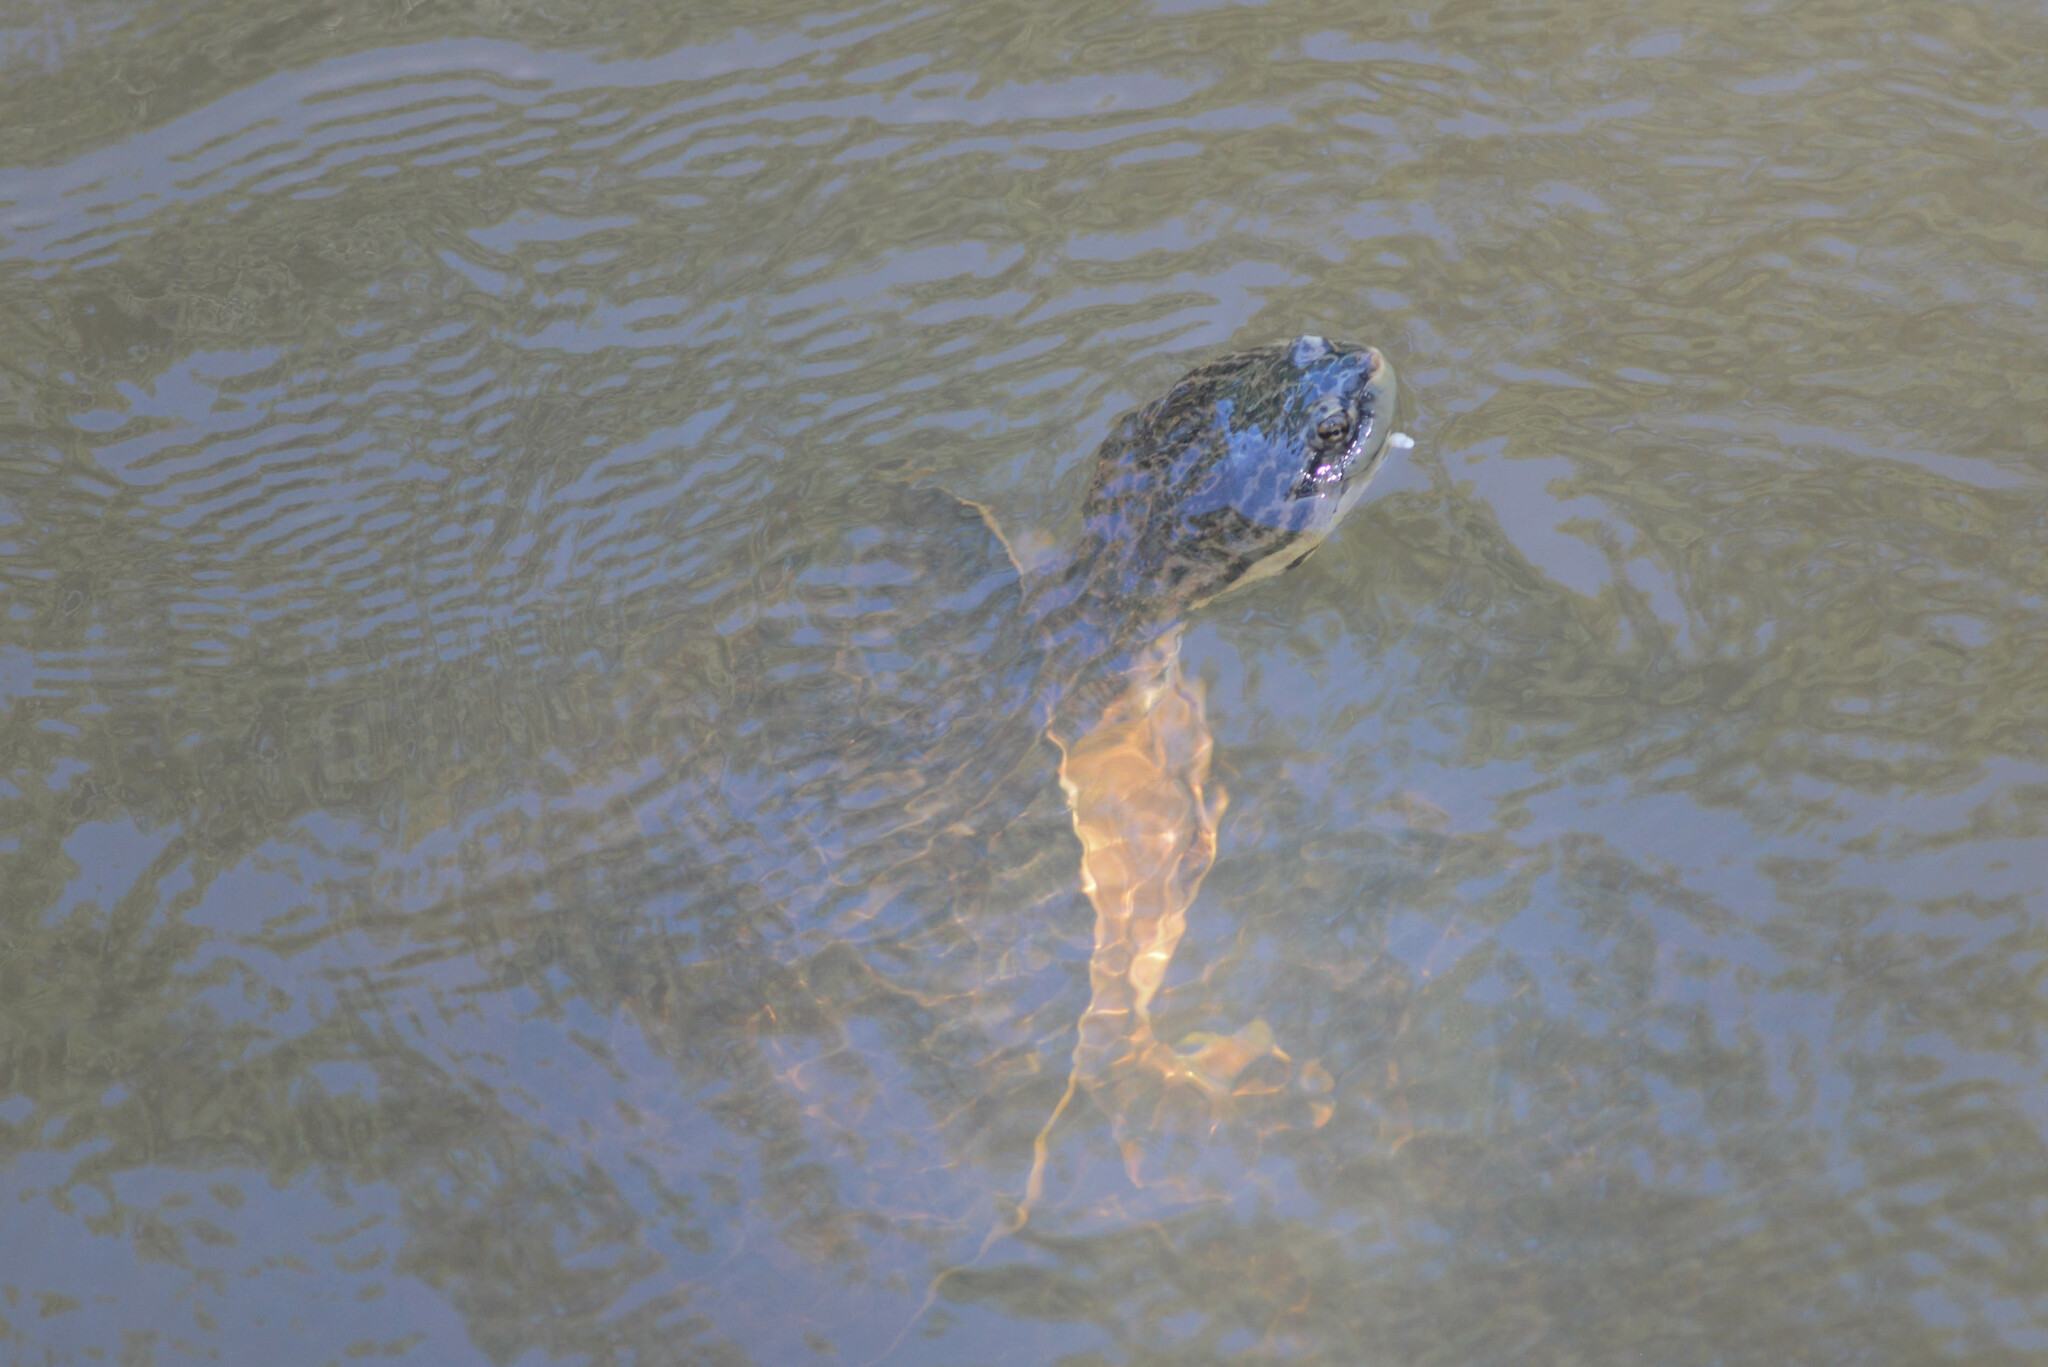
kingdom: Animalia
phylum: Chordata
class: Testudines
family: Chelidae
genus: Phrynops
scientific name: Phrynops geoffroanus
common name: Side-necked turtle of geoffroy
